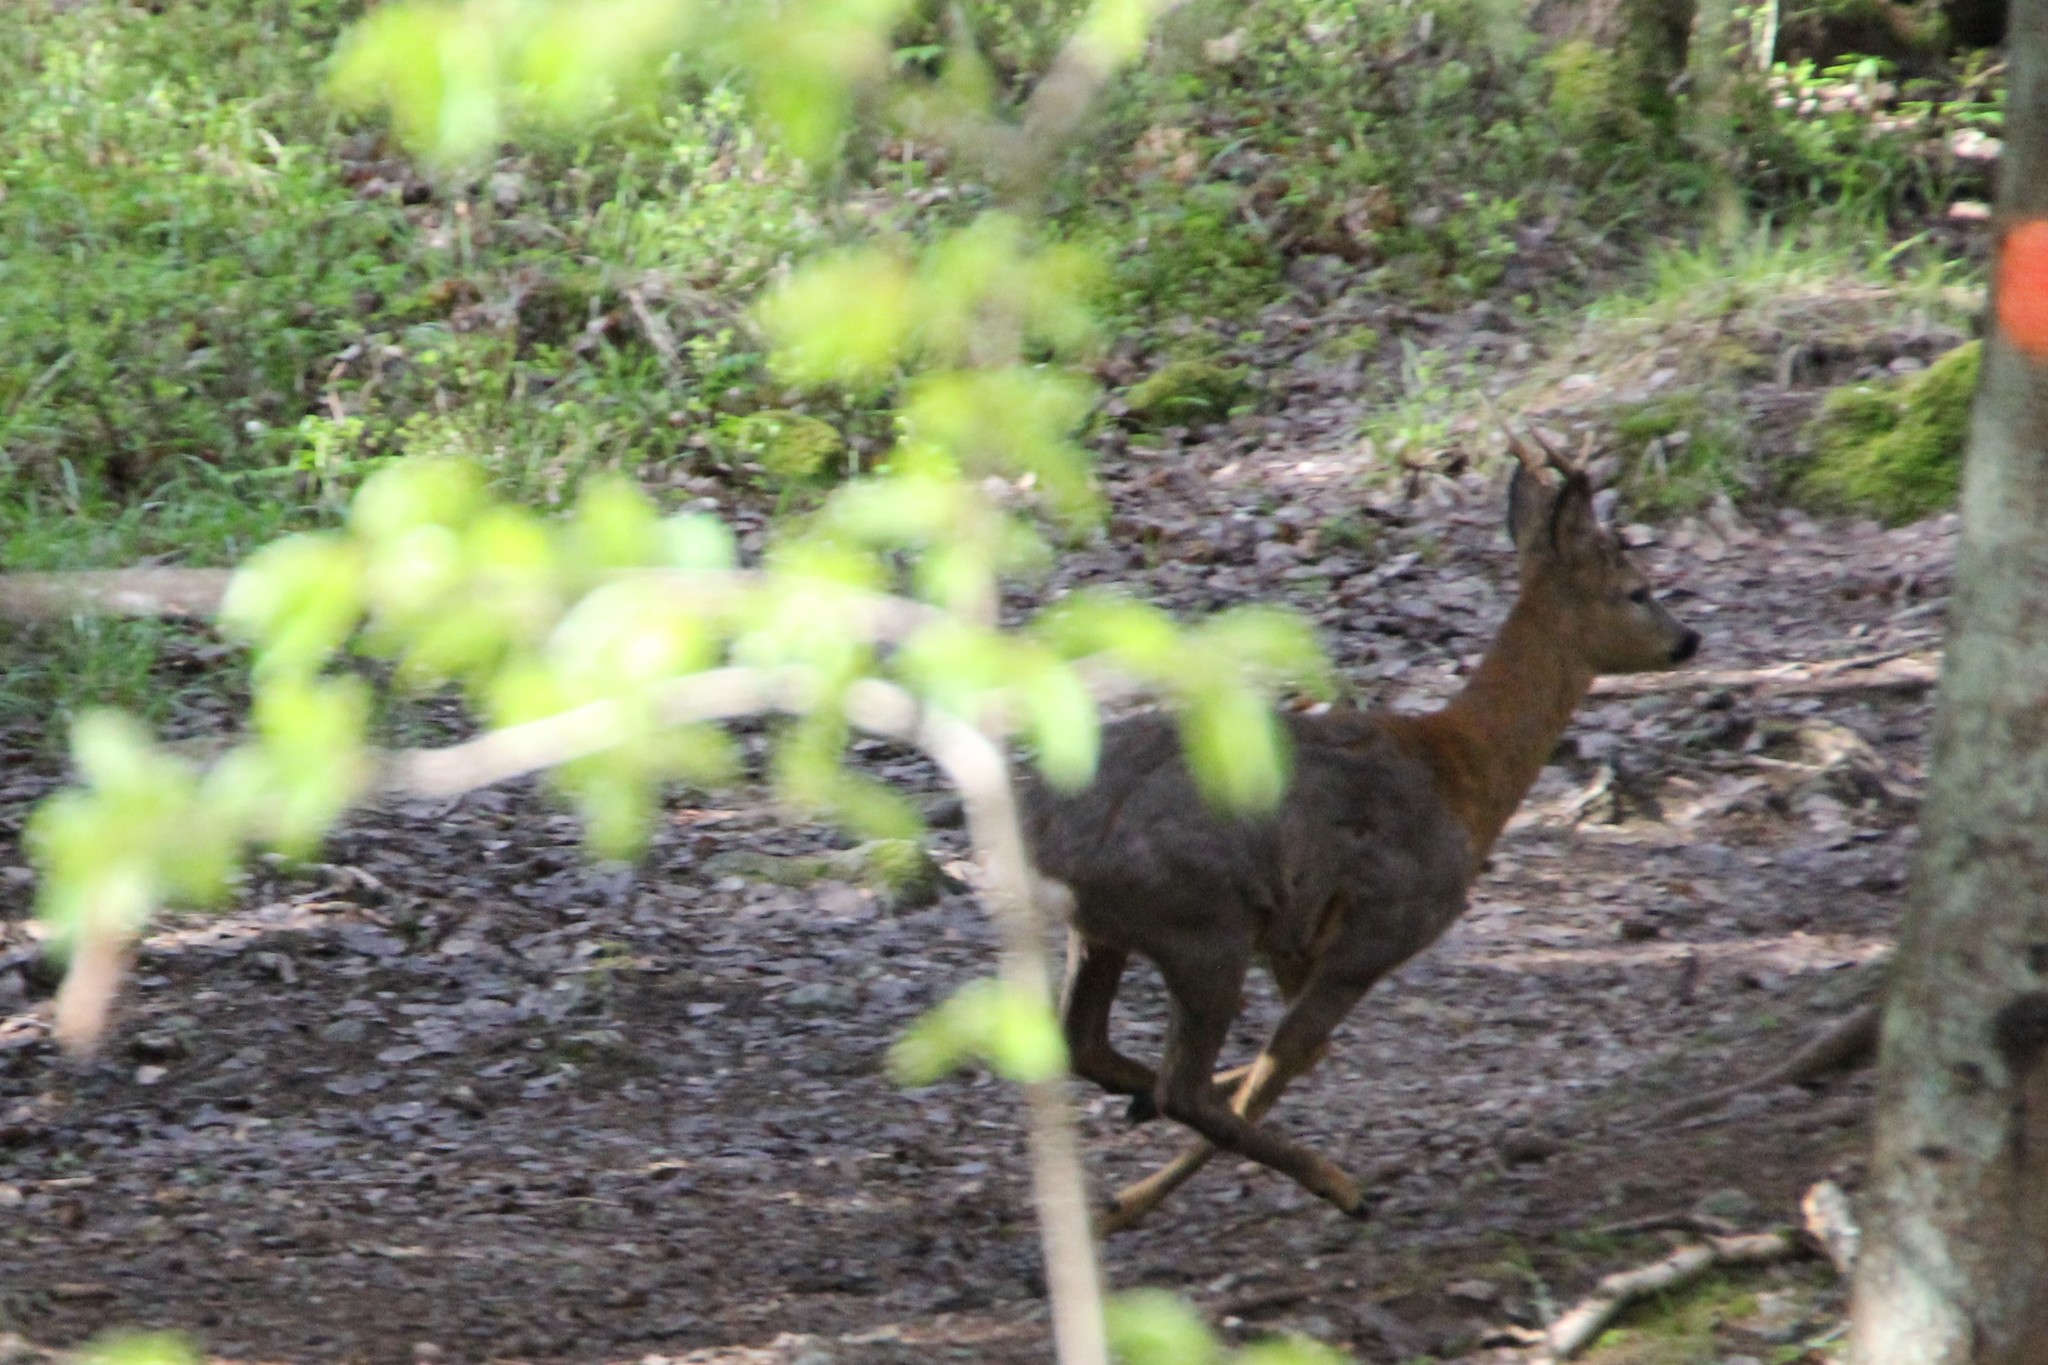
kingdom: Animalia
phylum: Chordata
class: Mammalia
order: Artiodactyla
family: Cervidae
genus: Capreolus
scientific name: Capreolus capreolus
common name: Western roe deer
